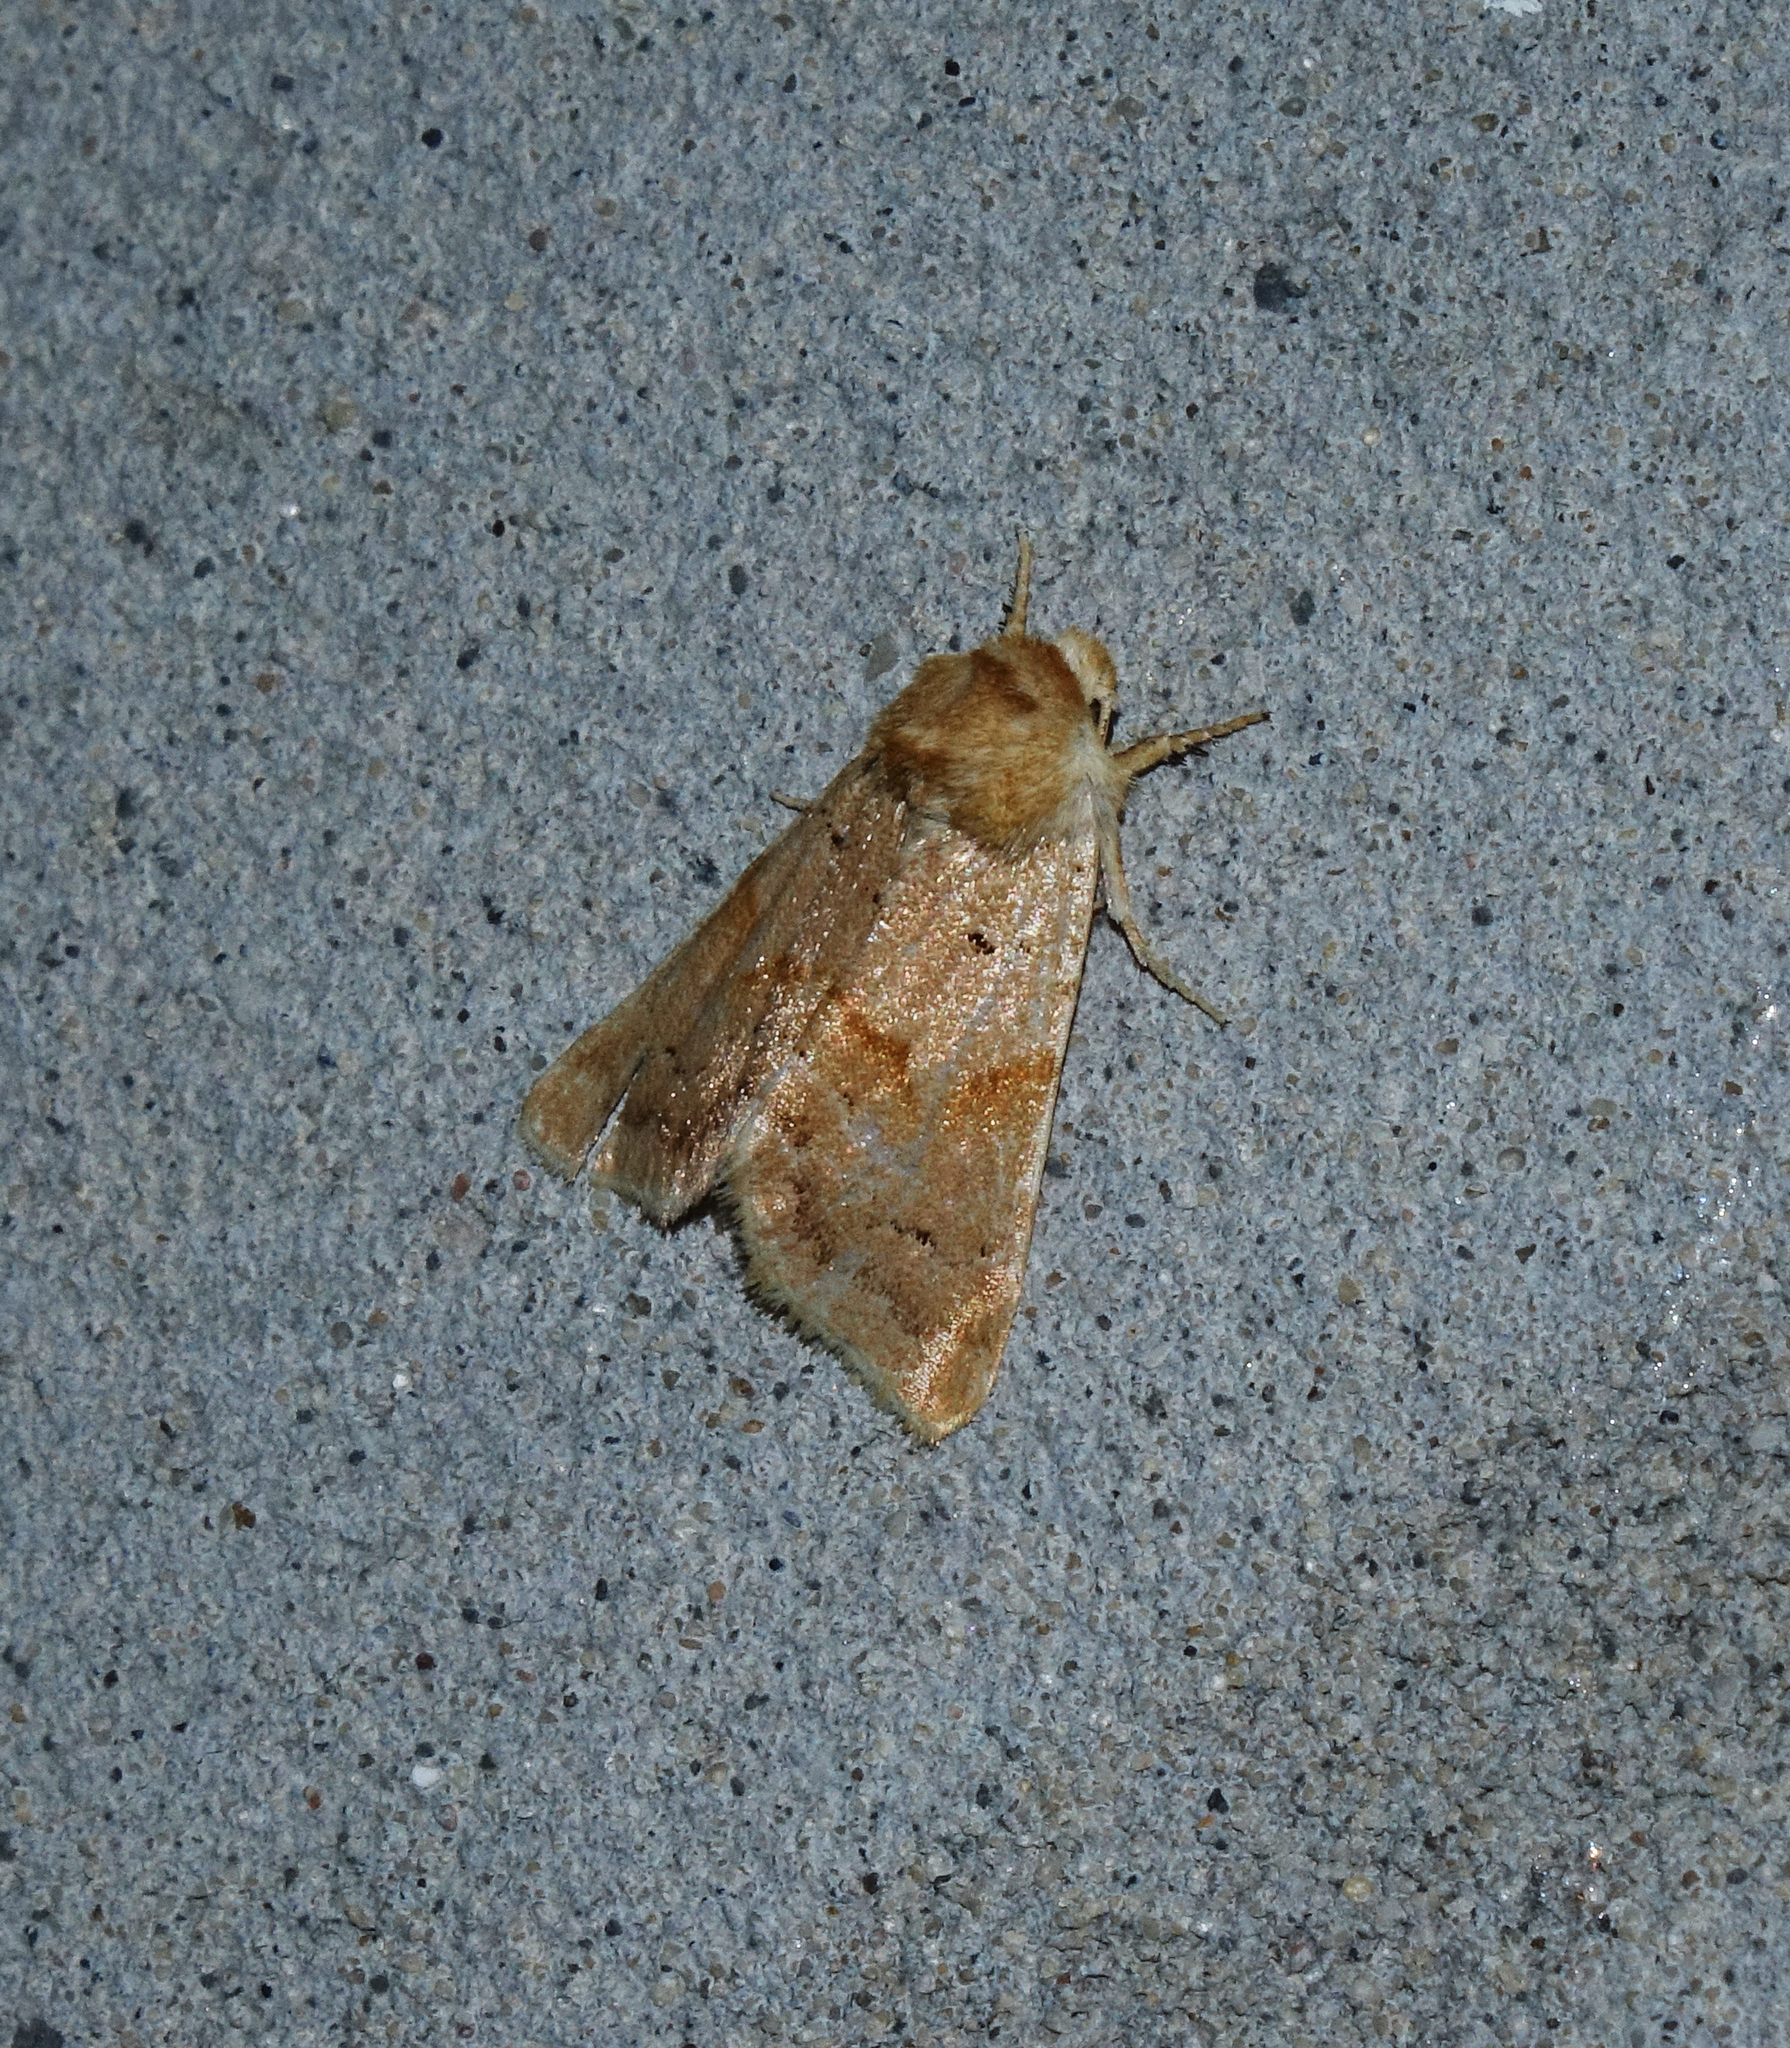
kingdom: Animalia
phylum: Arthropoda
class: Insecta
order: Lepidoptera
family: Noctuidae
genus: Mycteroplus
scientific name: Mycteroplus puniceago
